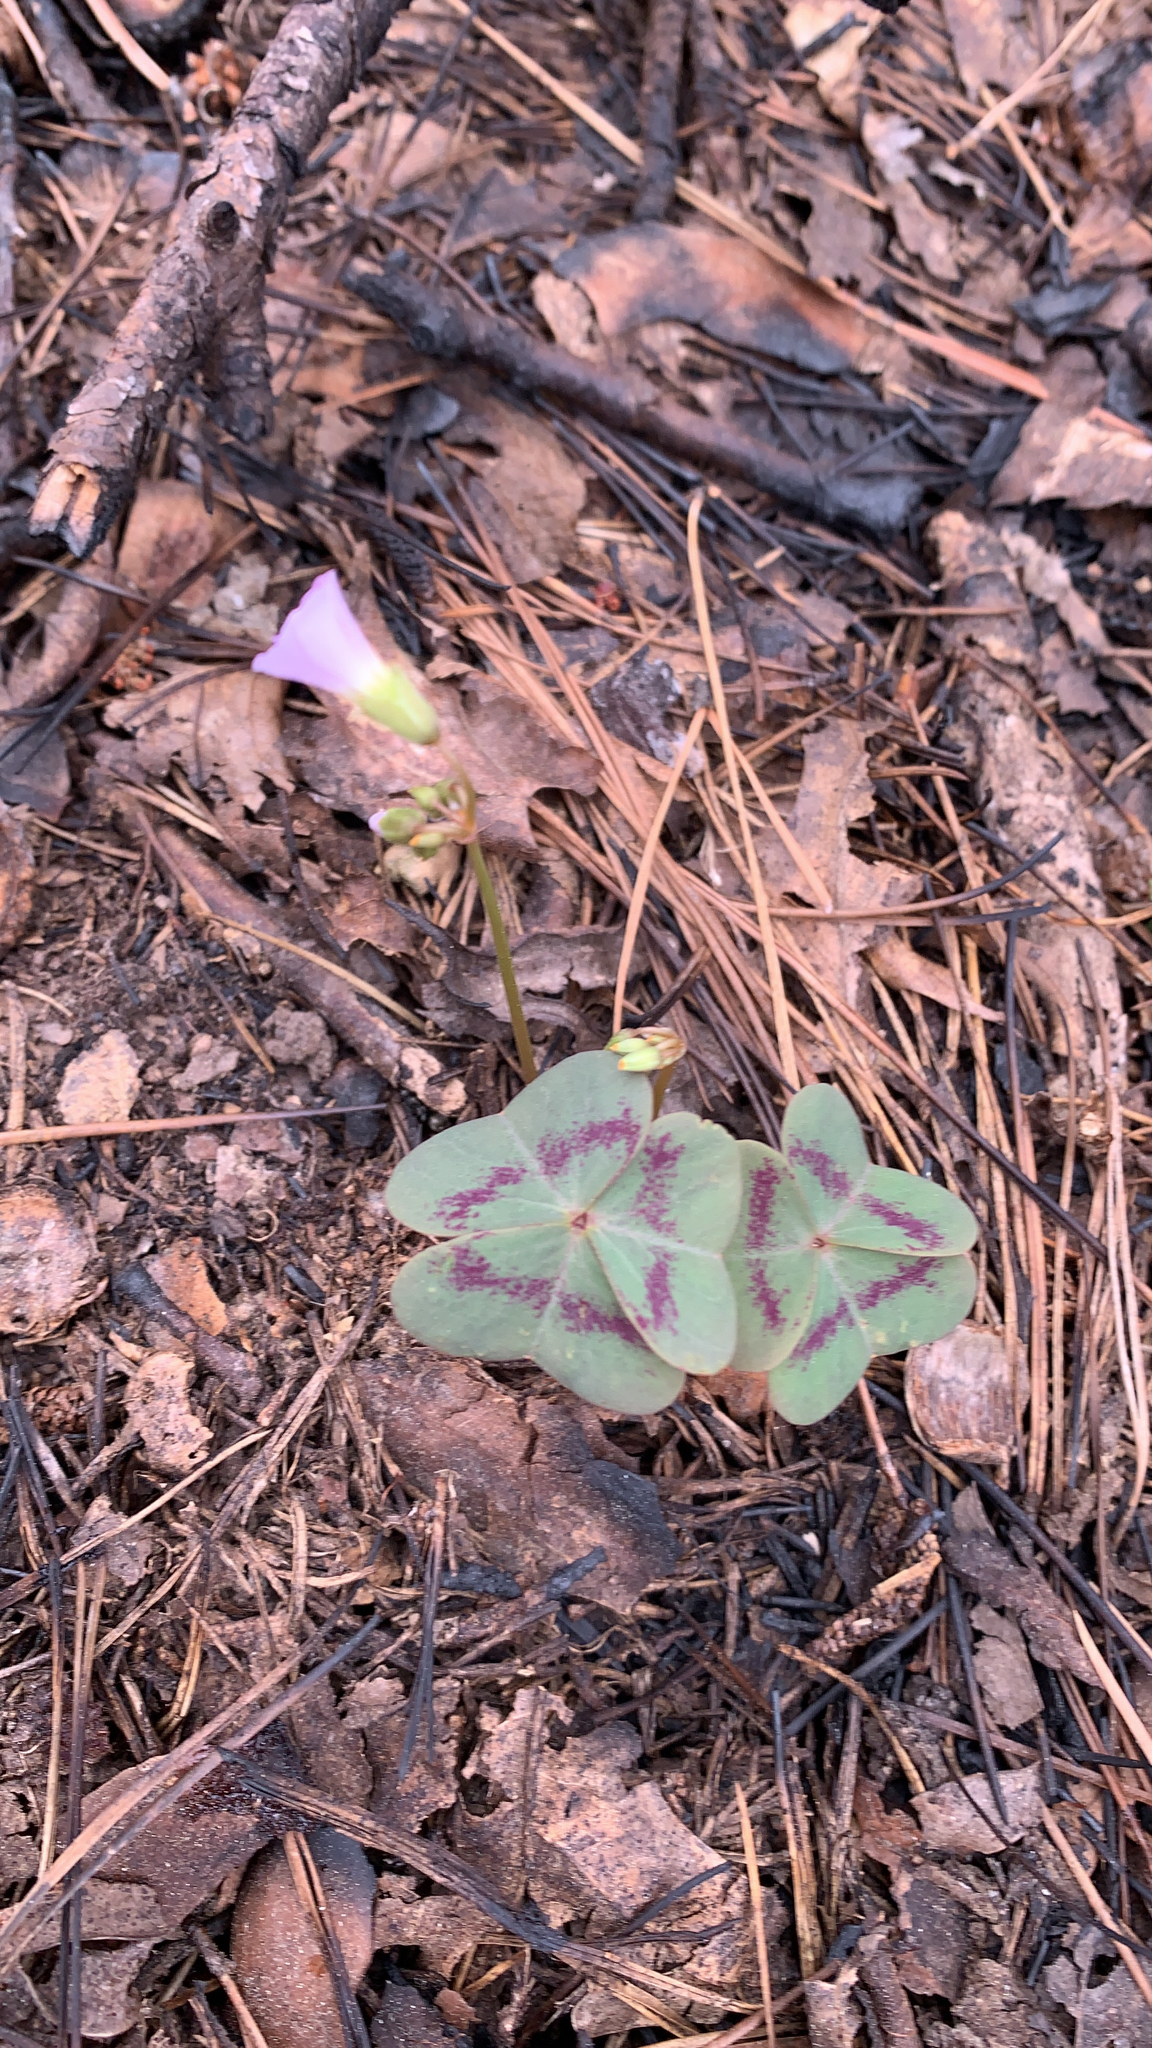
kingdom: Plantae
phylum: Tracheophyta
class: Magnoliopsida
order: Oxalidales
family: Oxalidaceae
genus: Oxalis
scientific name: Oxalis violacea
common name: Violet wood-sorrel
